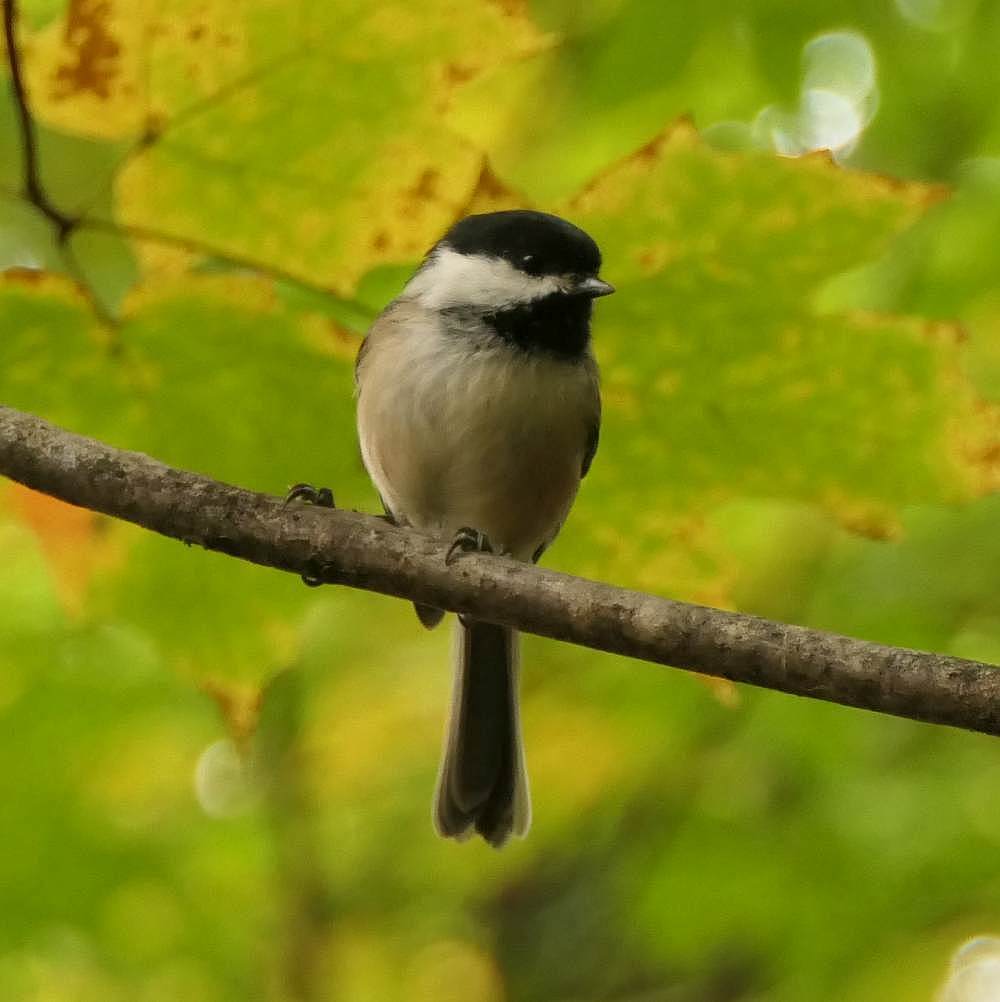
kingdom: Animalia
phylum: Chordata
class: Aves
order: Passeriformes
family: Paridae
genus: Poecile
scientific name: Poecile atricapillus
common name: Black-capped chickadee
